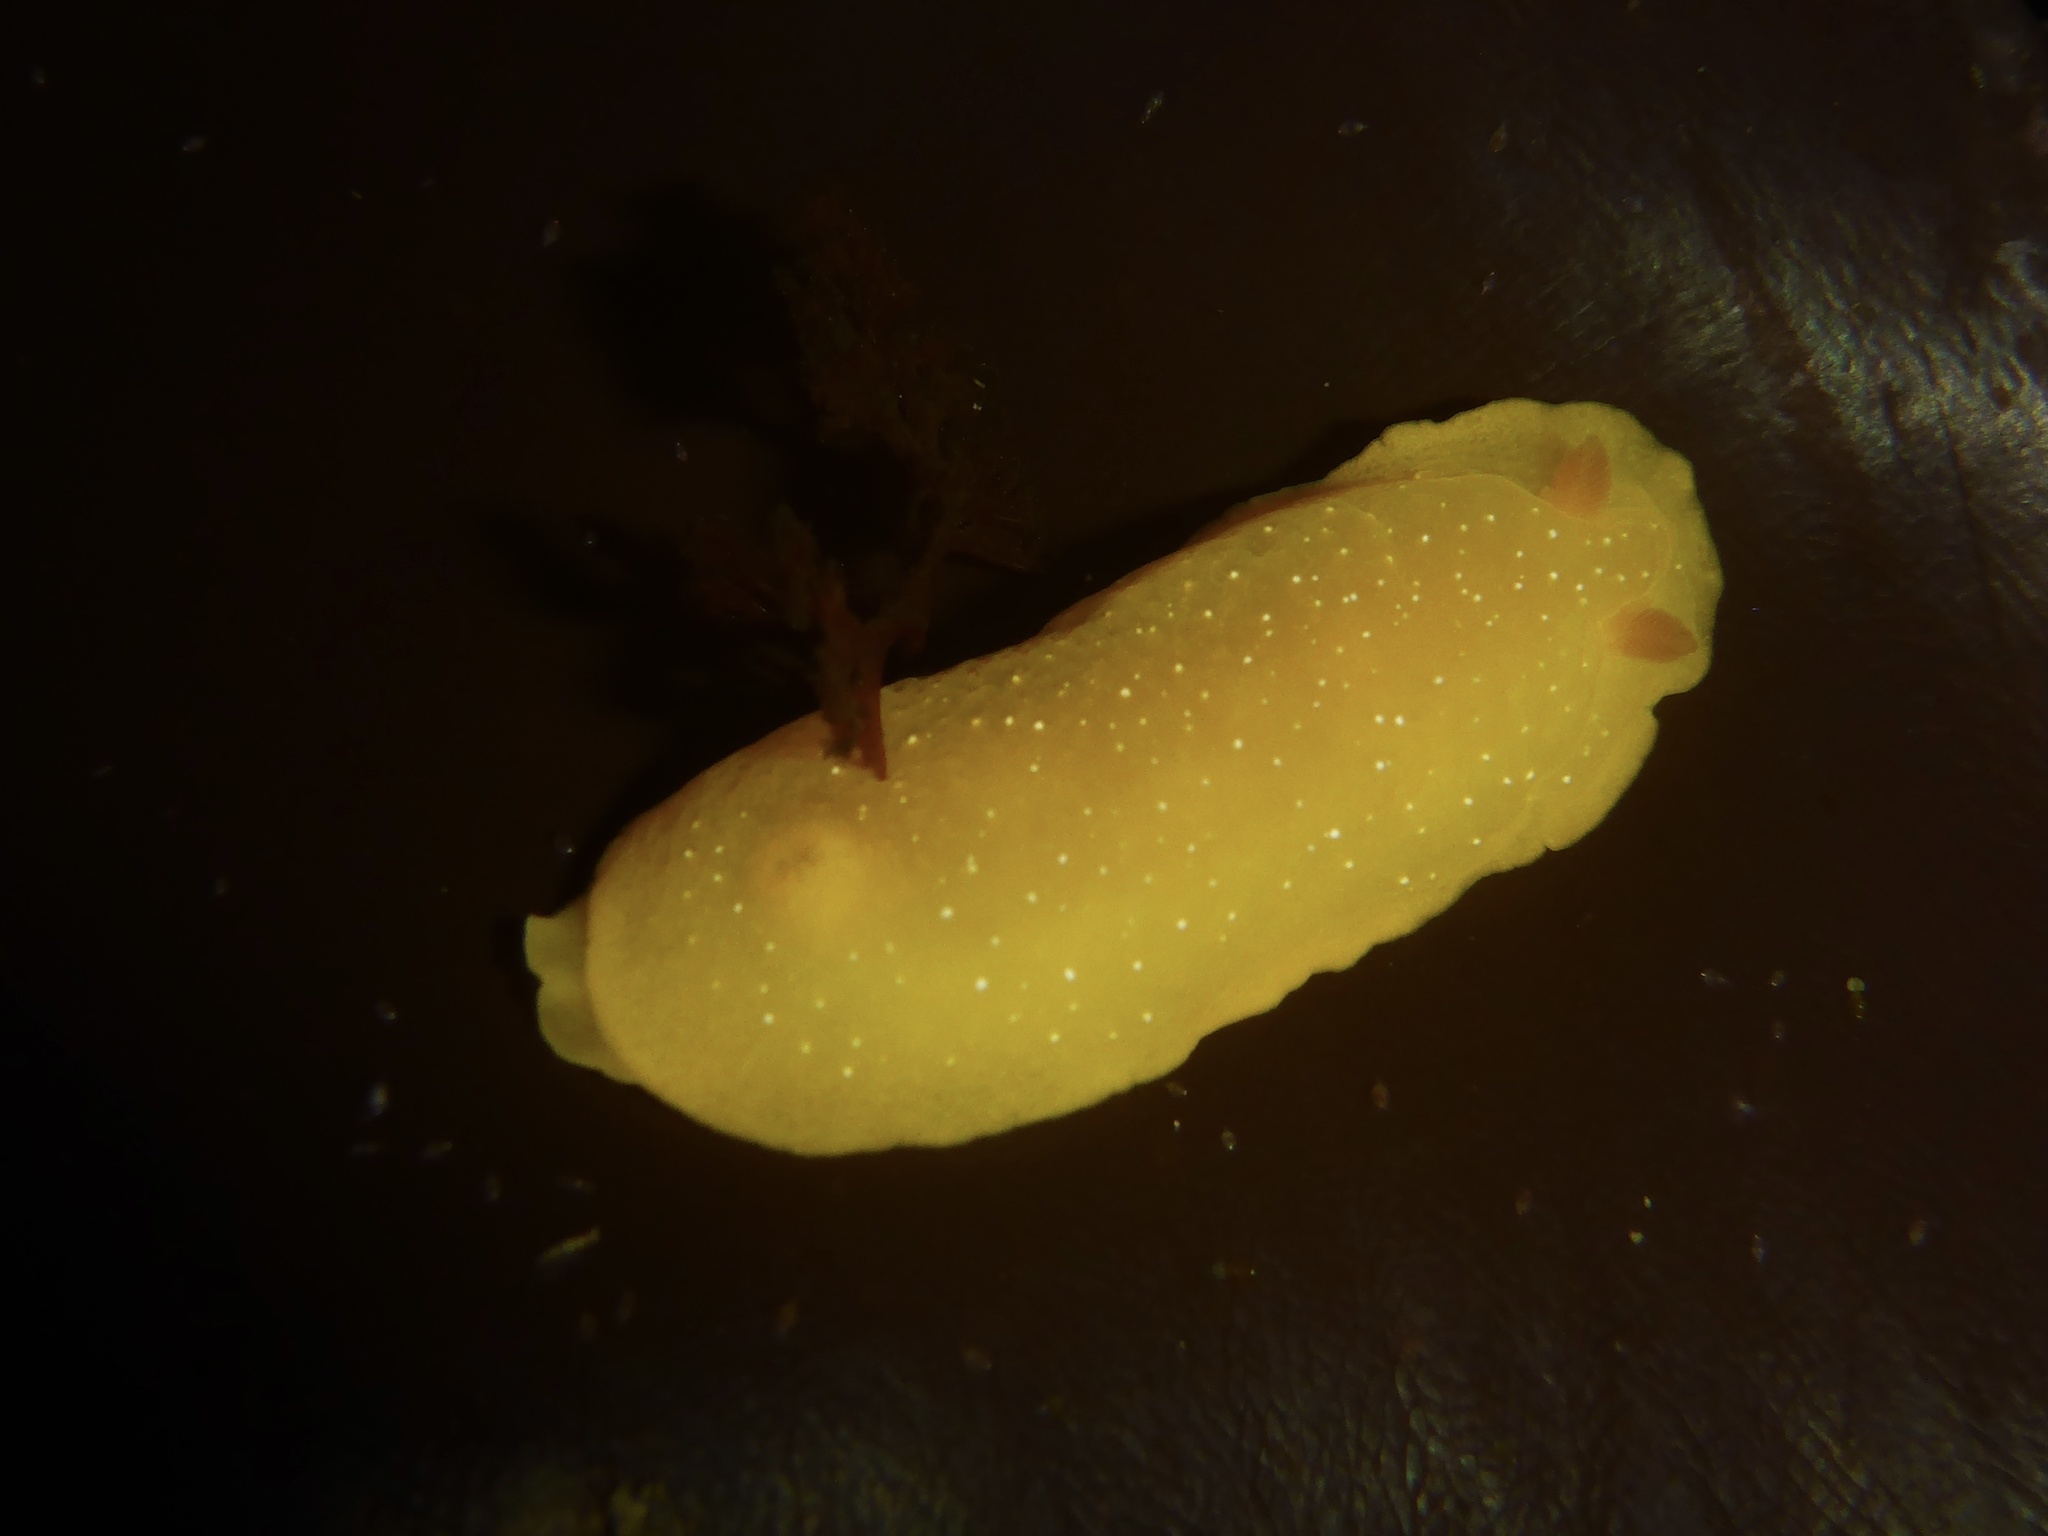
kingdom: Animalia
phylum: Mollusca
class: Gastropoda
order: Nudibranchia
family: Dendrodorididae
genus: Doriopsilla
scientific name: Doriopsilla fulva
